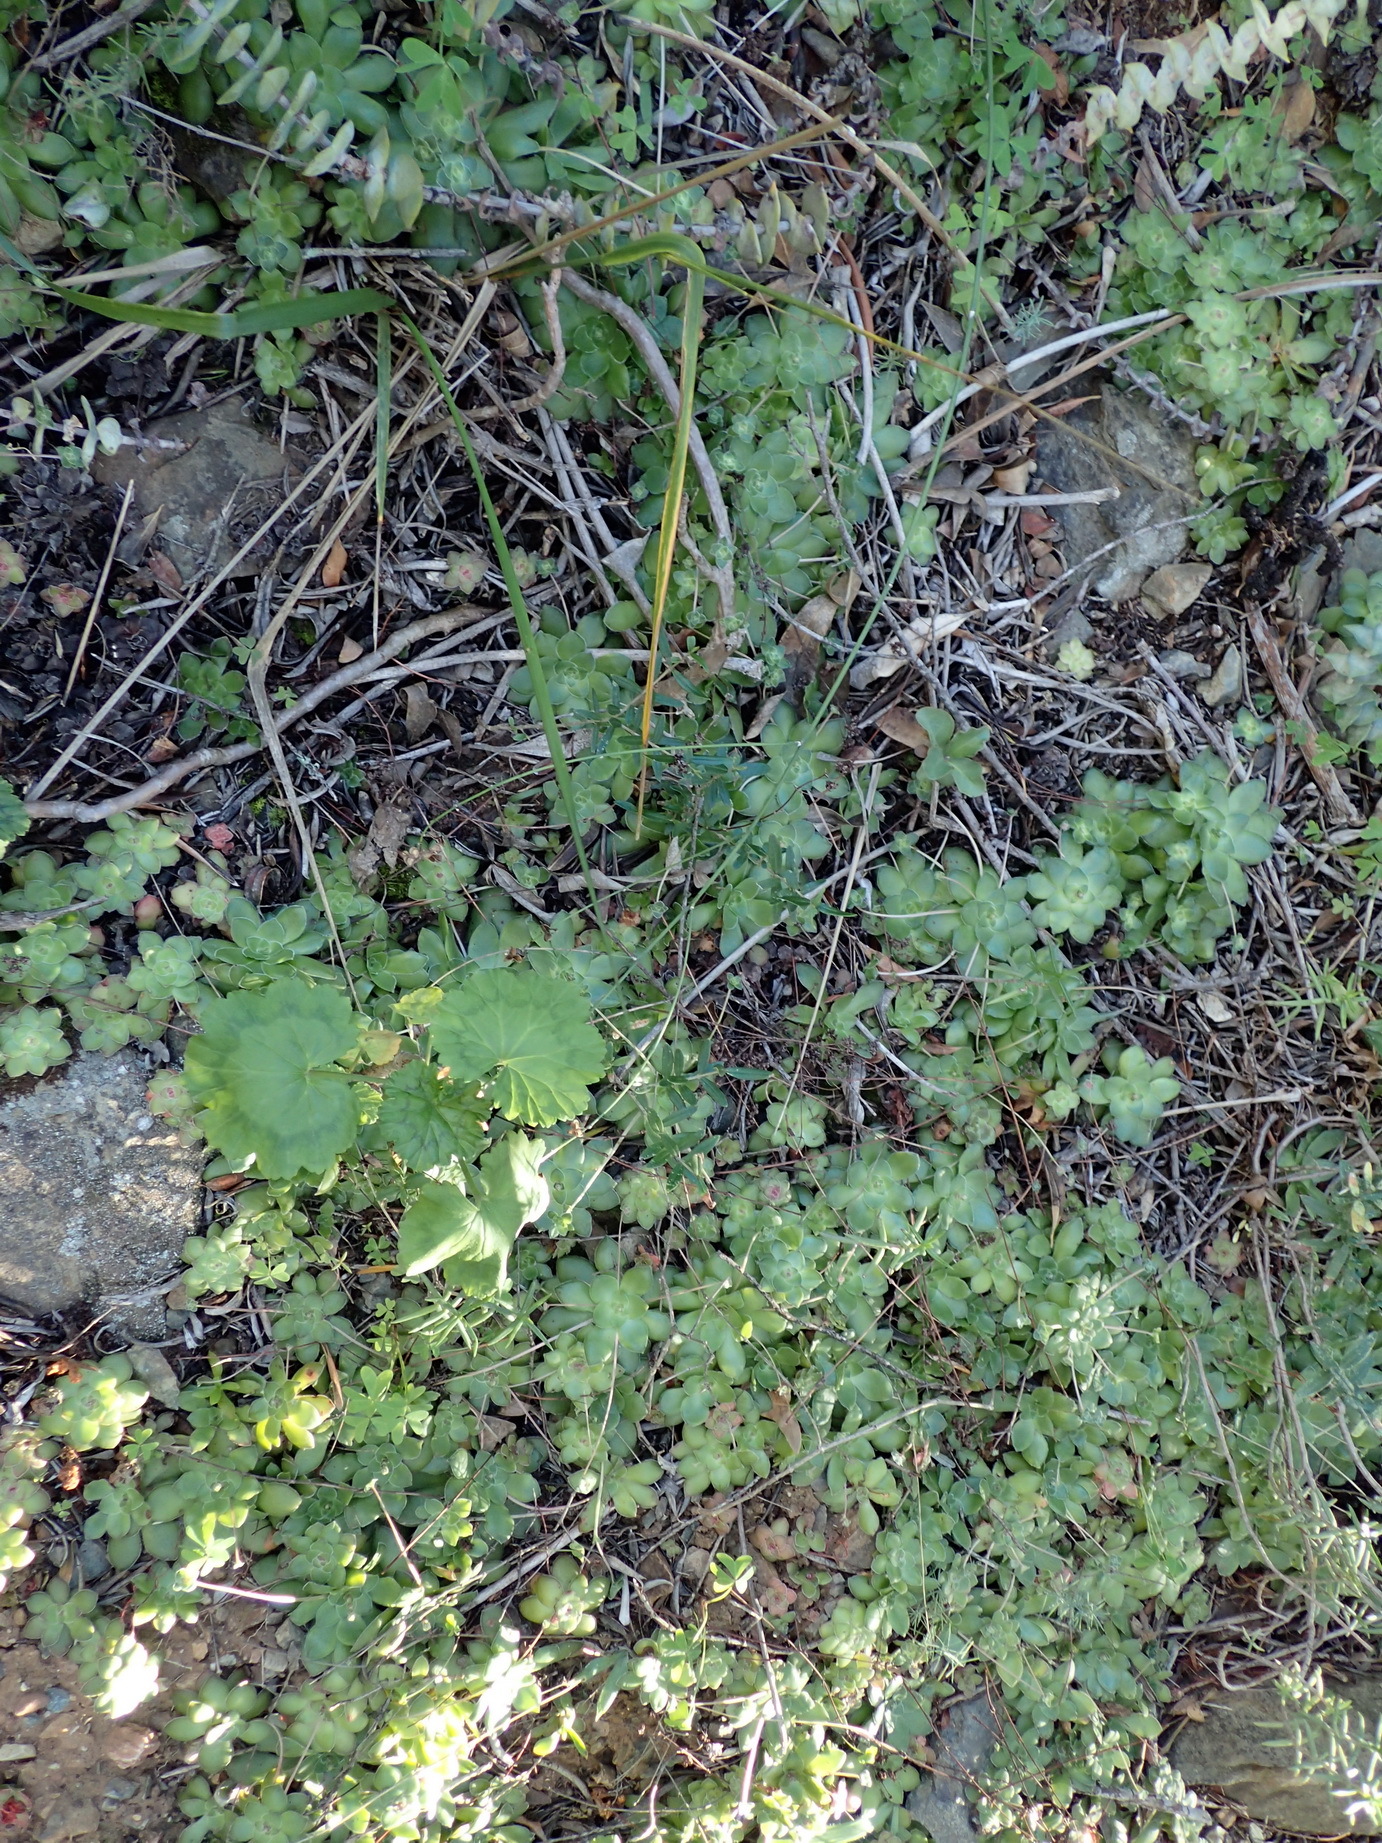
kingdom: Plantae
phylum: Tracheophyta
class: Magnoliopsida
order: Saxifragales
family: Crassulaceae
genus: Crassula
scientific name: Crassula orbicularis
